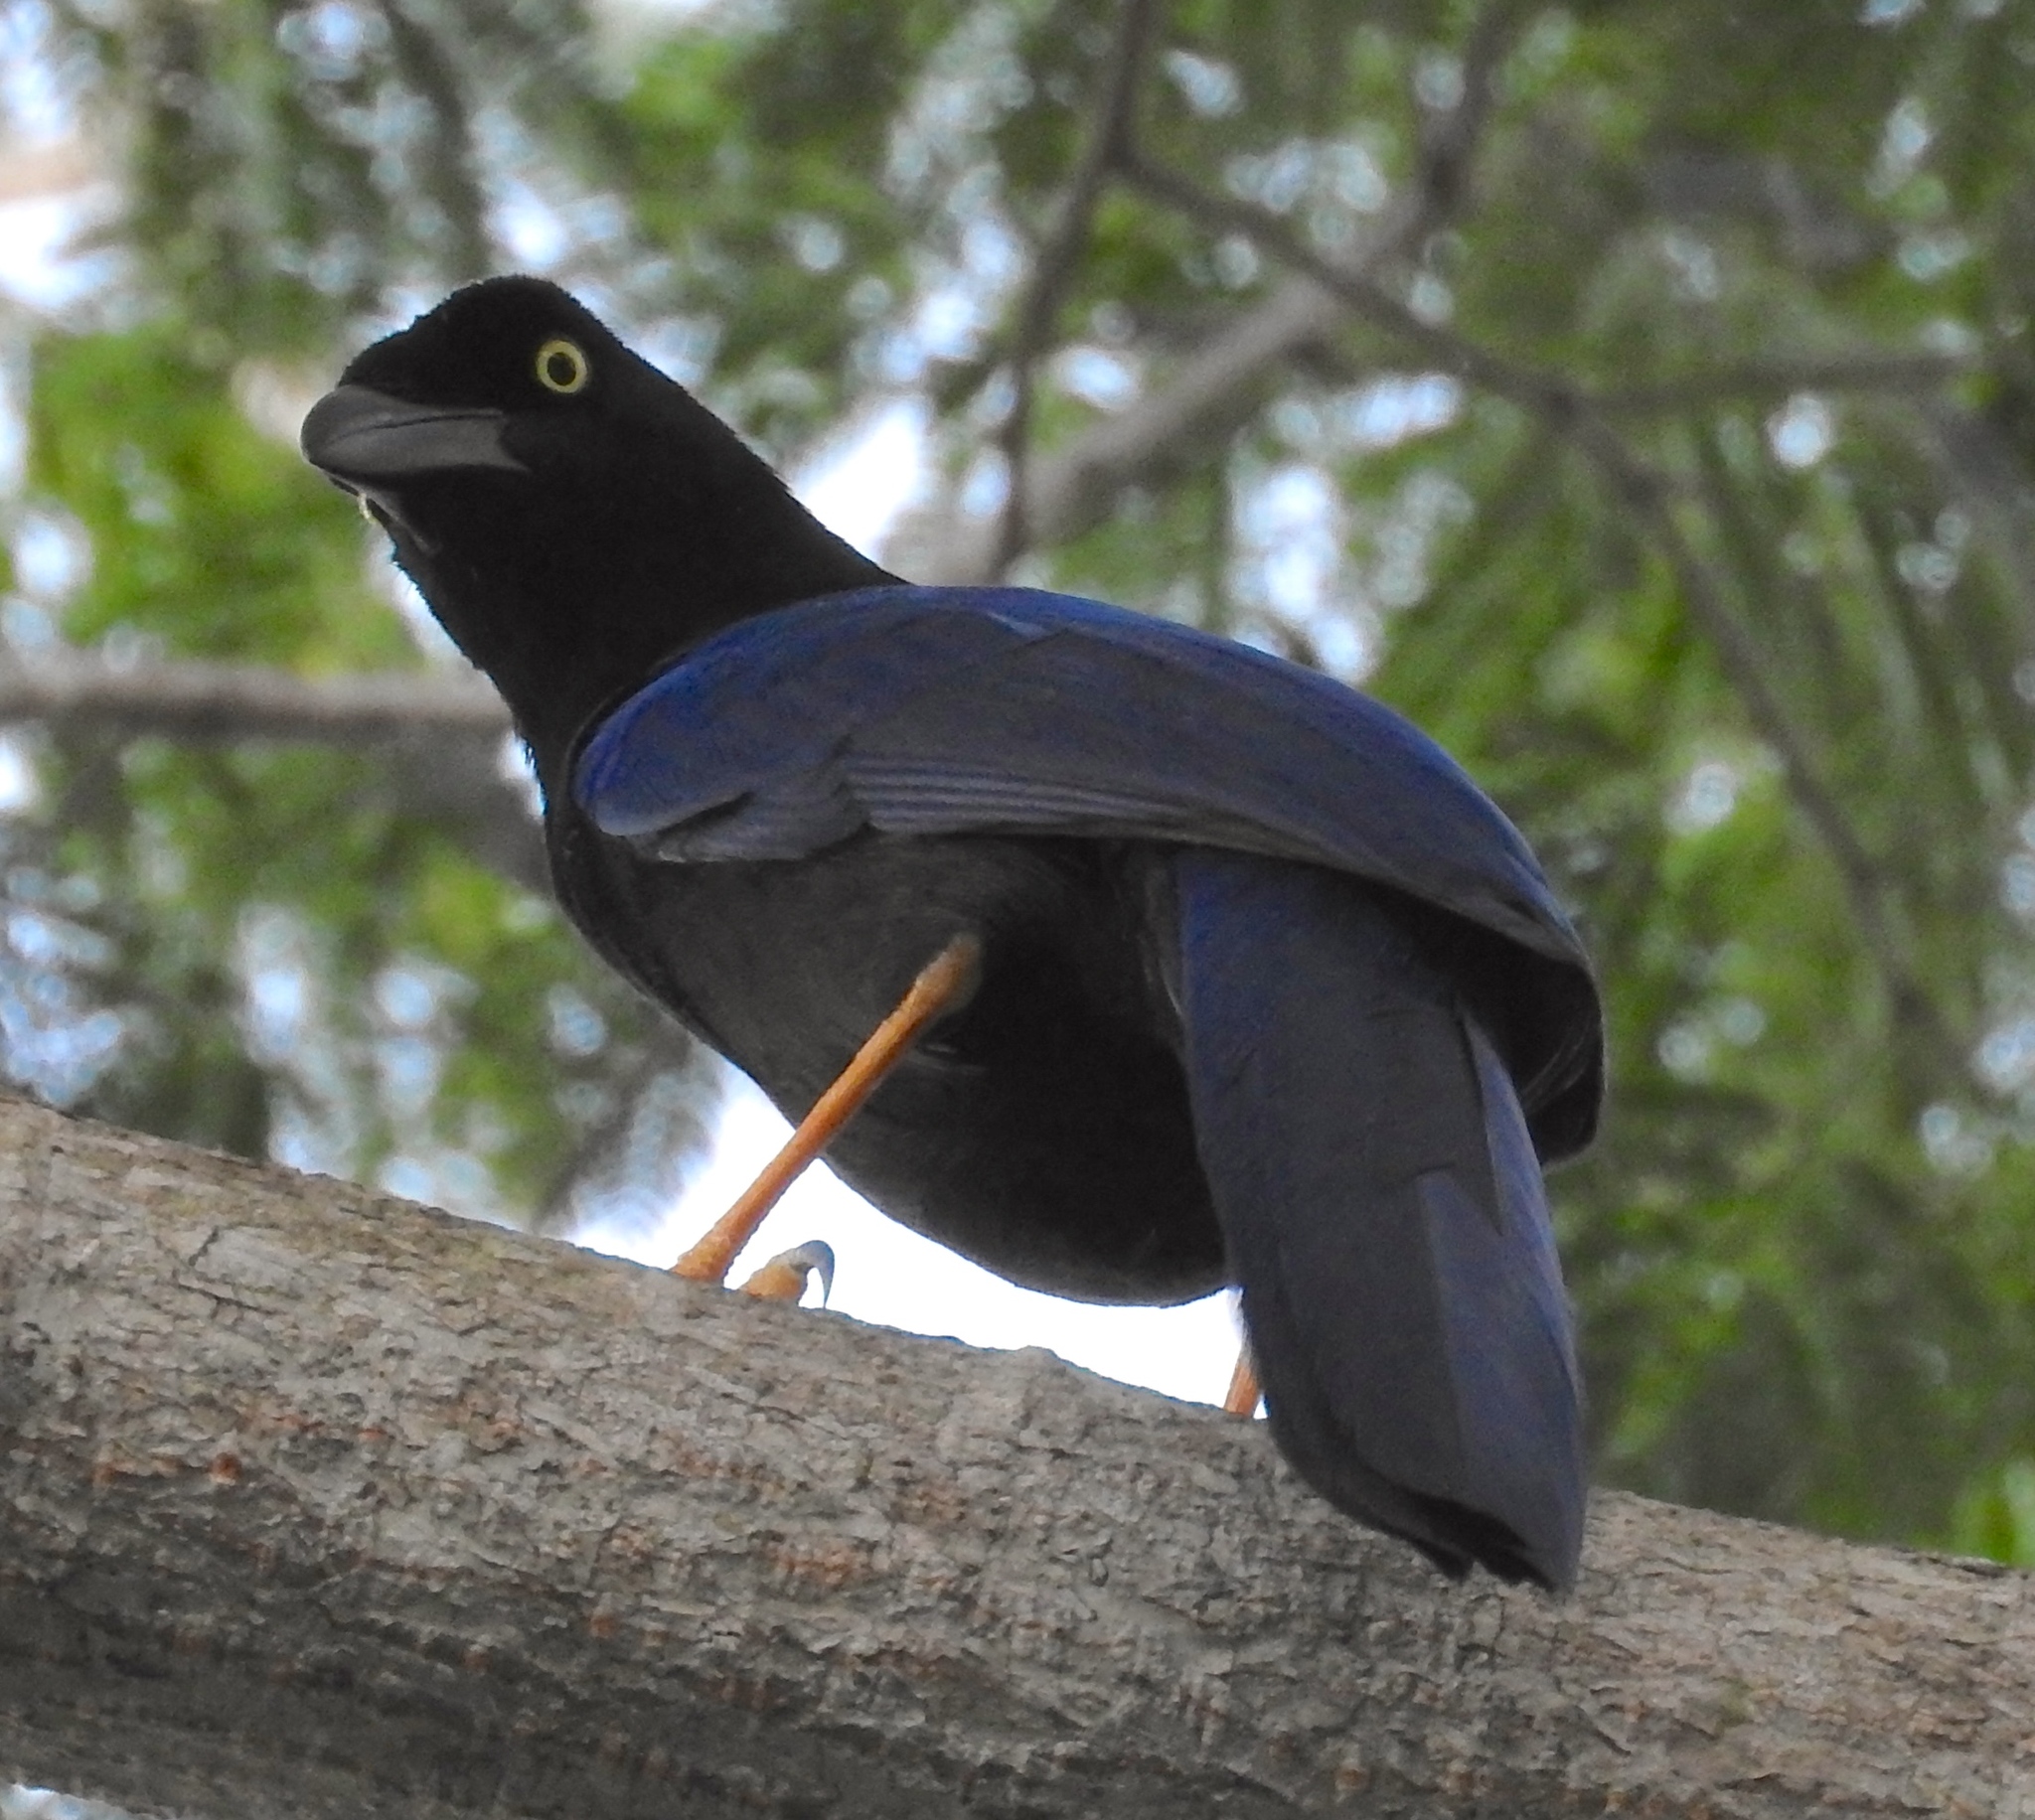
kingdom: Animalia
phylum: Chordata
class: Aves
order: Passeriformes
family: Corvidae
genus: Cyanocorax
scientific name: Cyanocorax beecheii
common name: Purplish-backed jay
